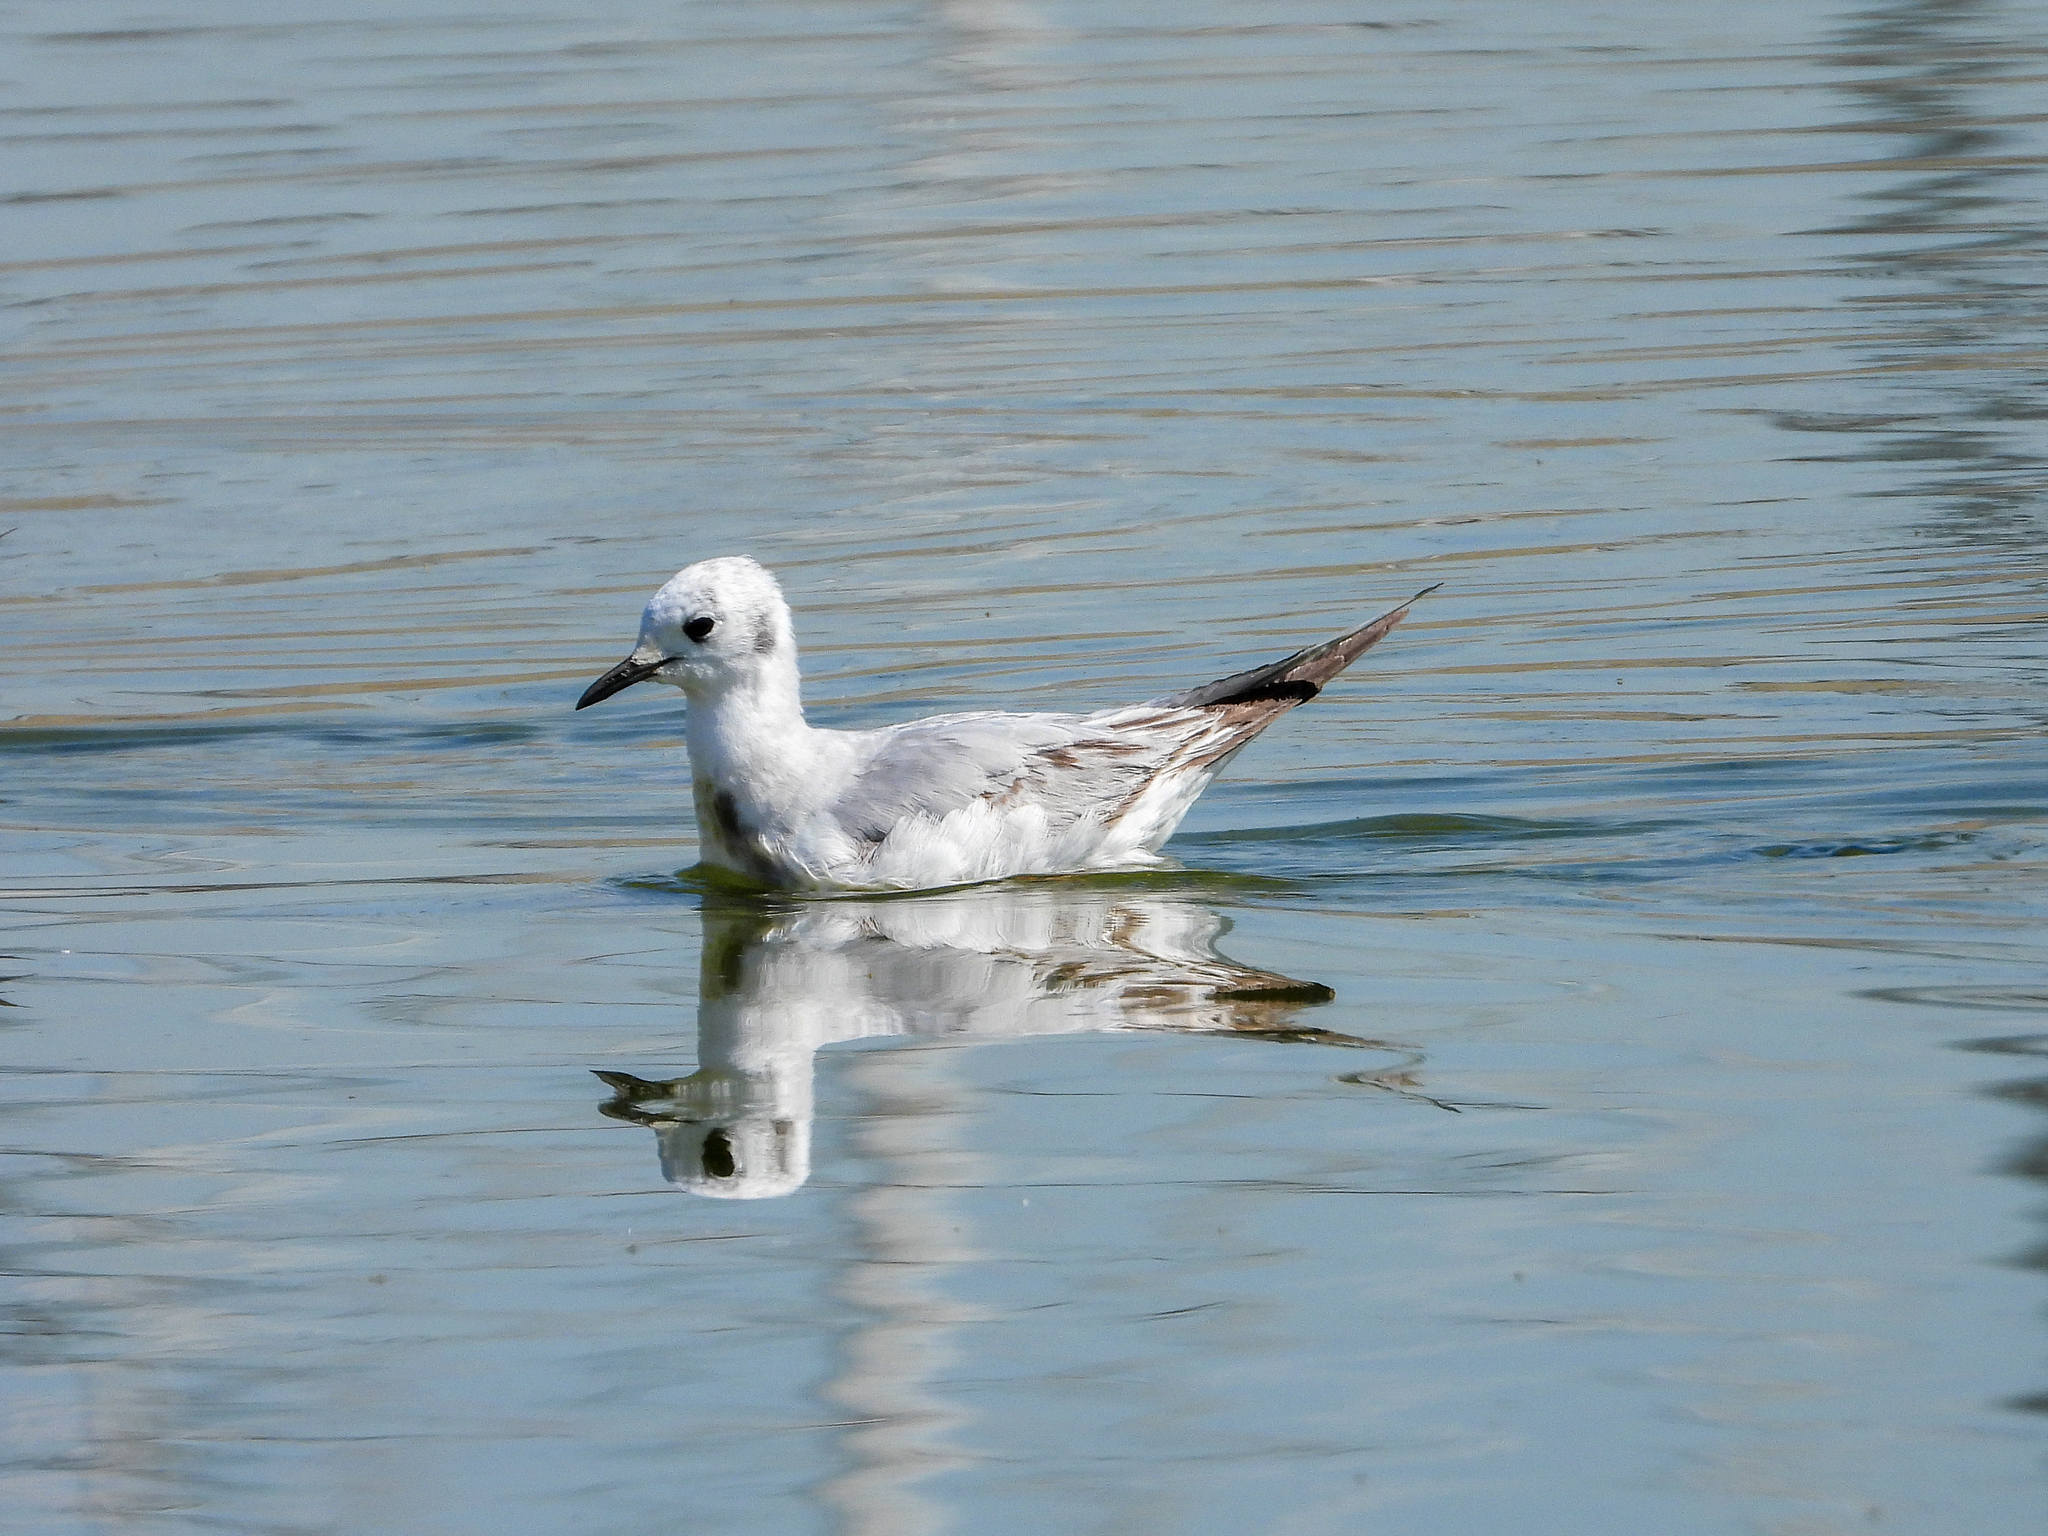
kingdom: Animalia
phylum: Chordata
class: Aves
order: Charadriiformes
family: Laridae
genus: Chroicocephalus
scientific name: Chroicocephalus philadelphia
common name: Bonaparte's gull
